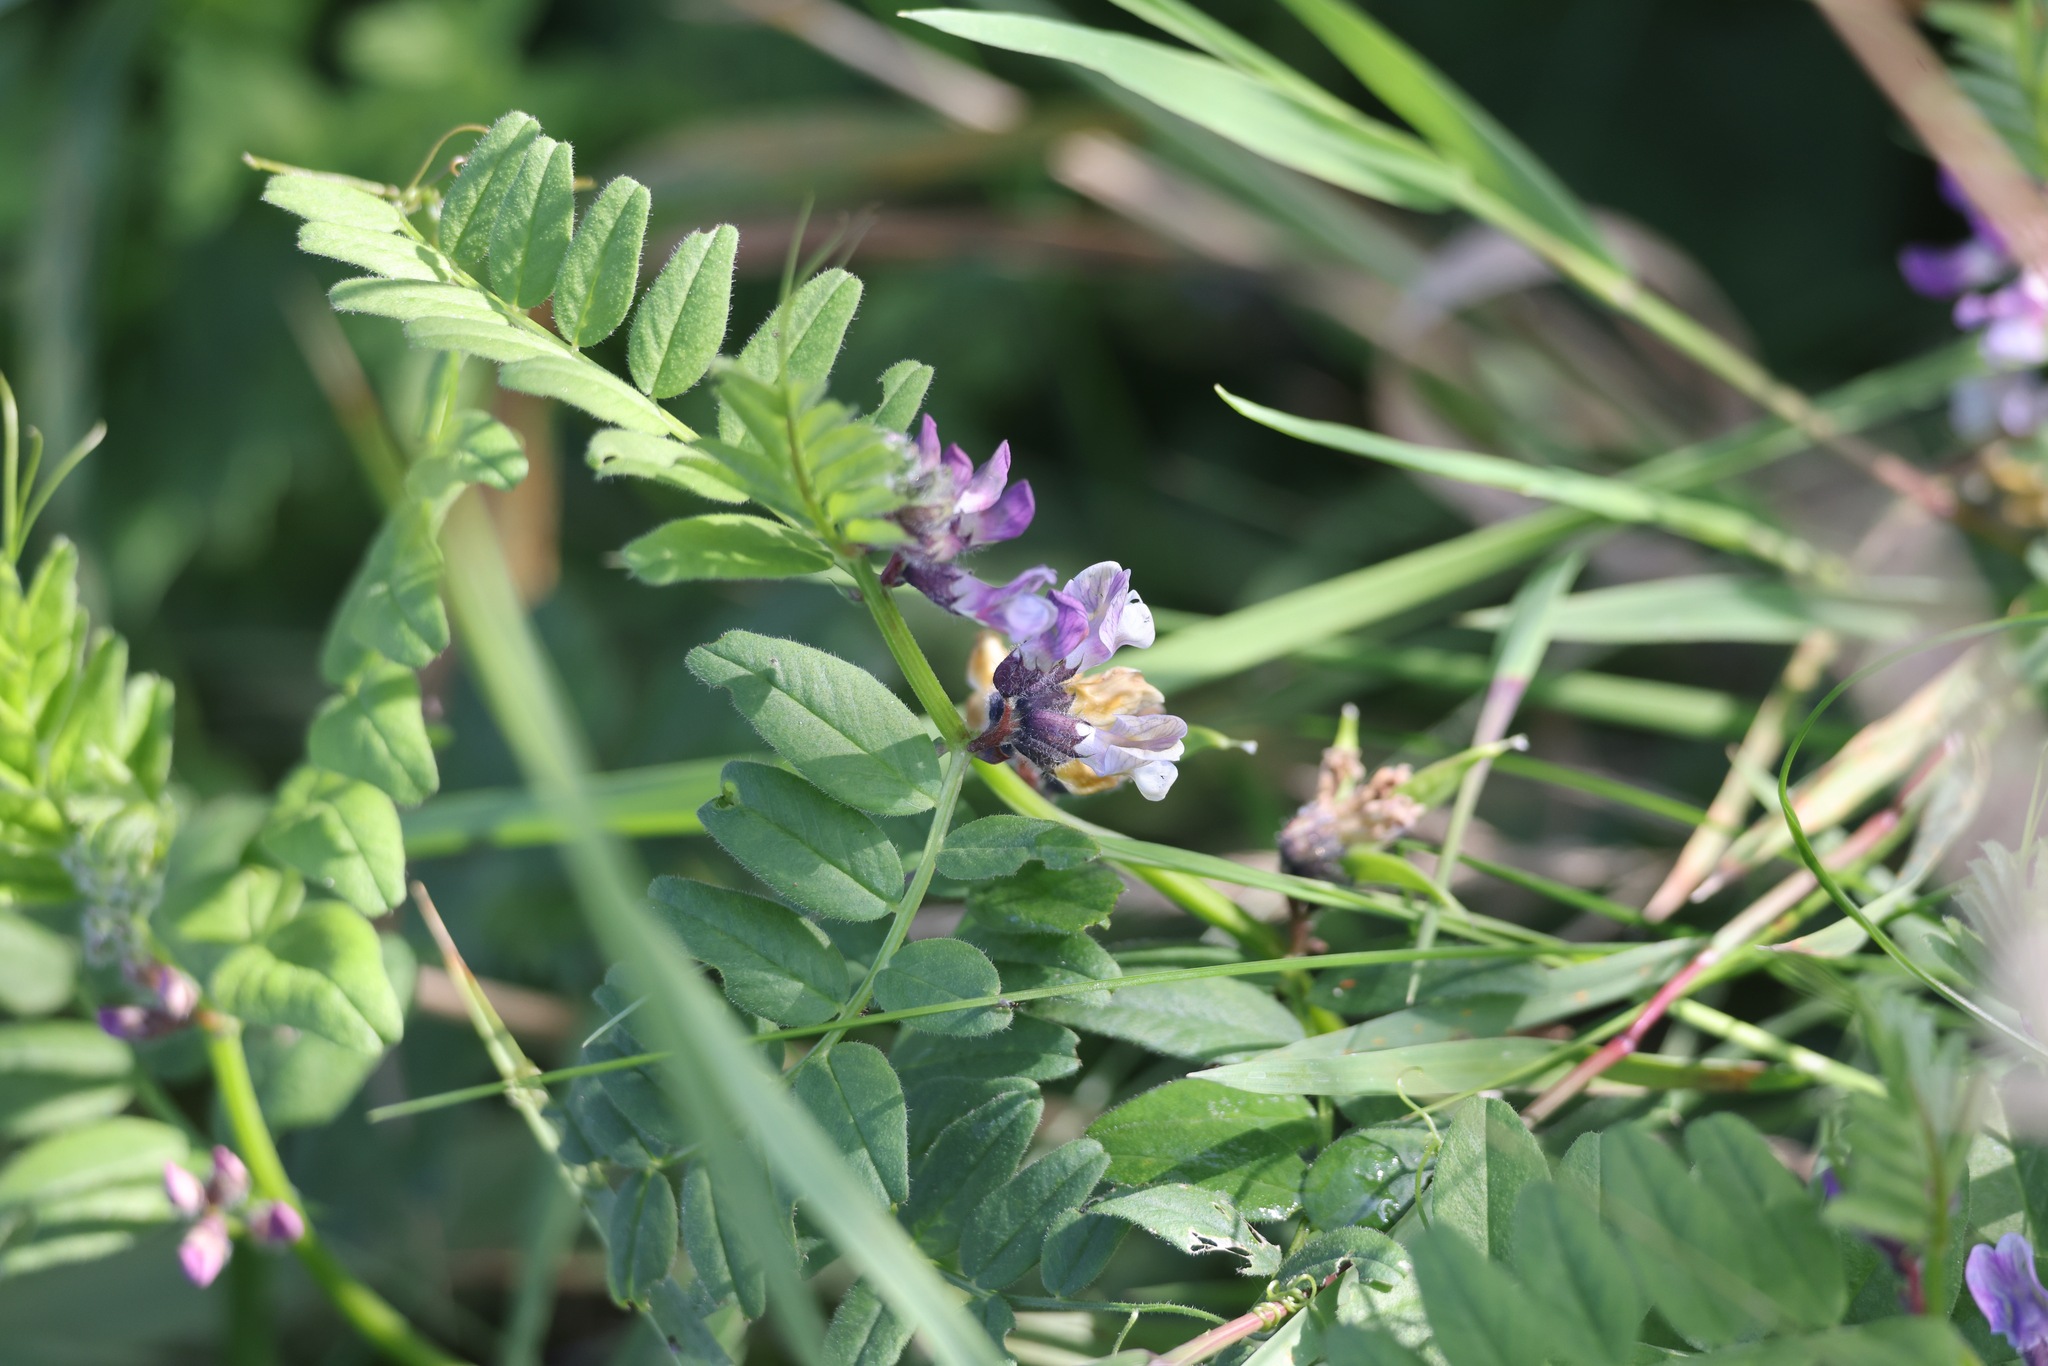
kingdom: Plantae
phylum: Tracheophyta
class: Magnoliopsida
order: Fabales
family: Fabaceae
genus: Vicia
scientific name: Vicia sepium
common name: Bush vetch
